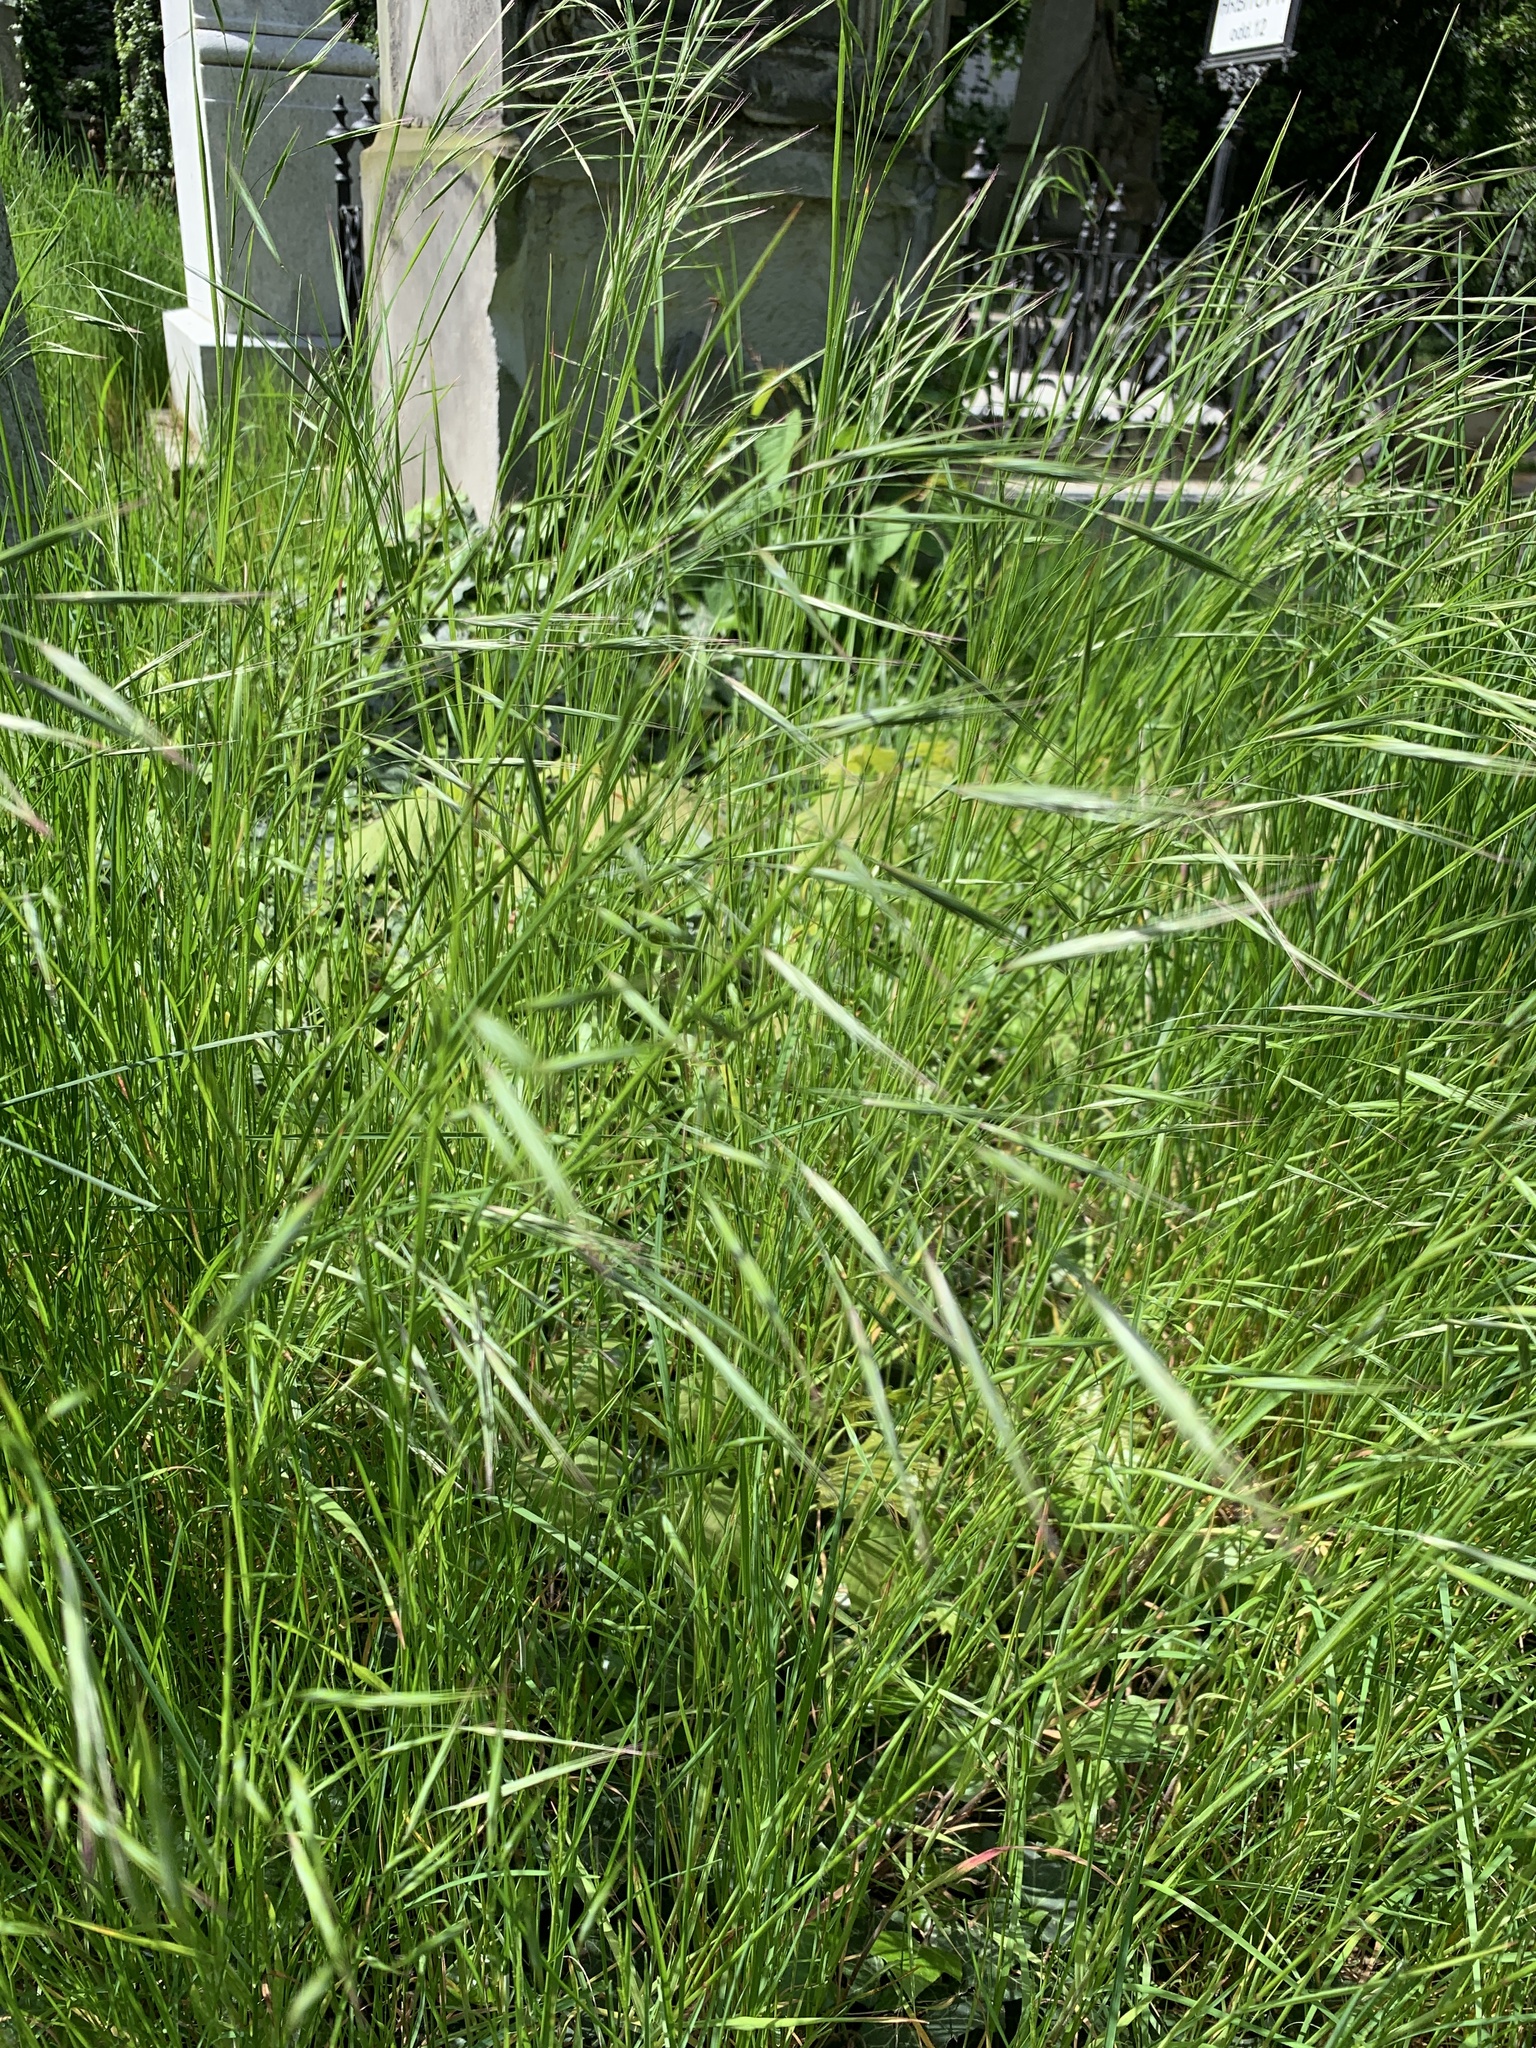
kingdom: Plantae
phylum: Tracheophyta
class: Liliopsida
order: Poales
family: Poaceae
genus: Bromus
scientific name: Bromus sterilis
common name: Poverty brome
